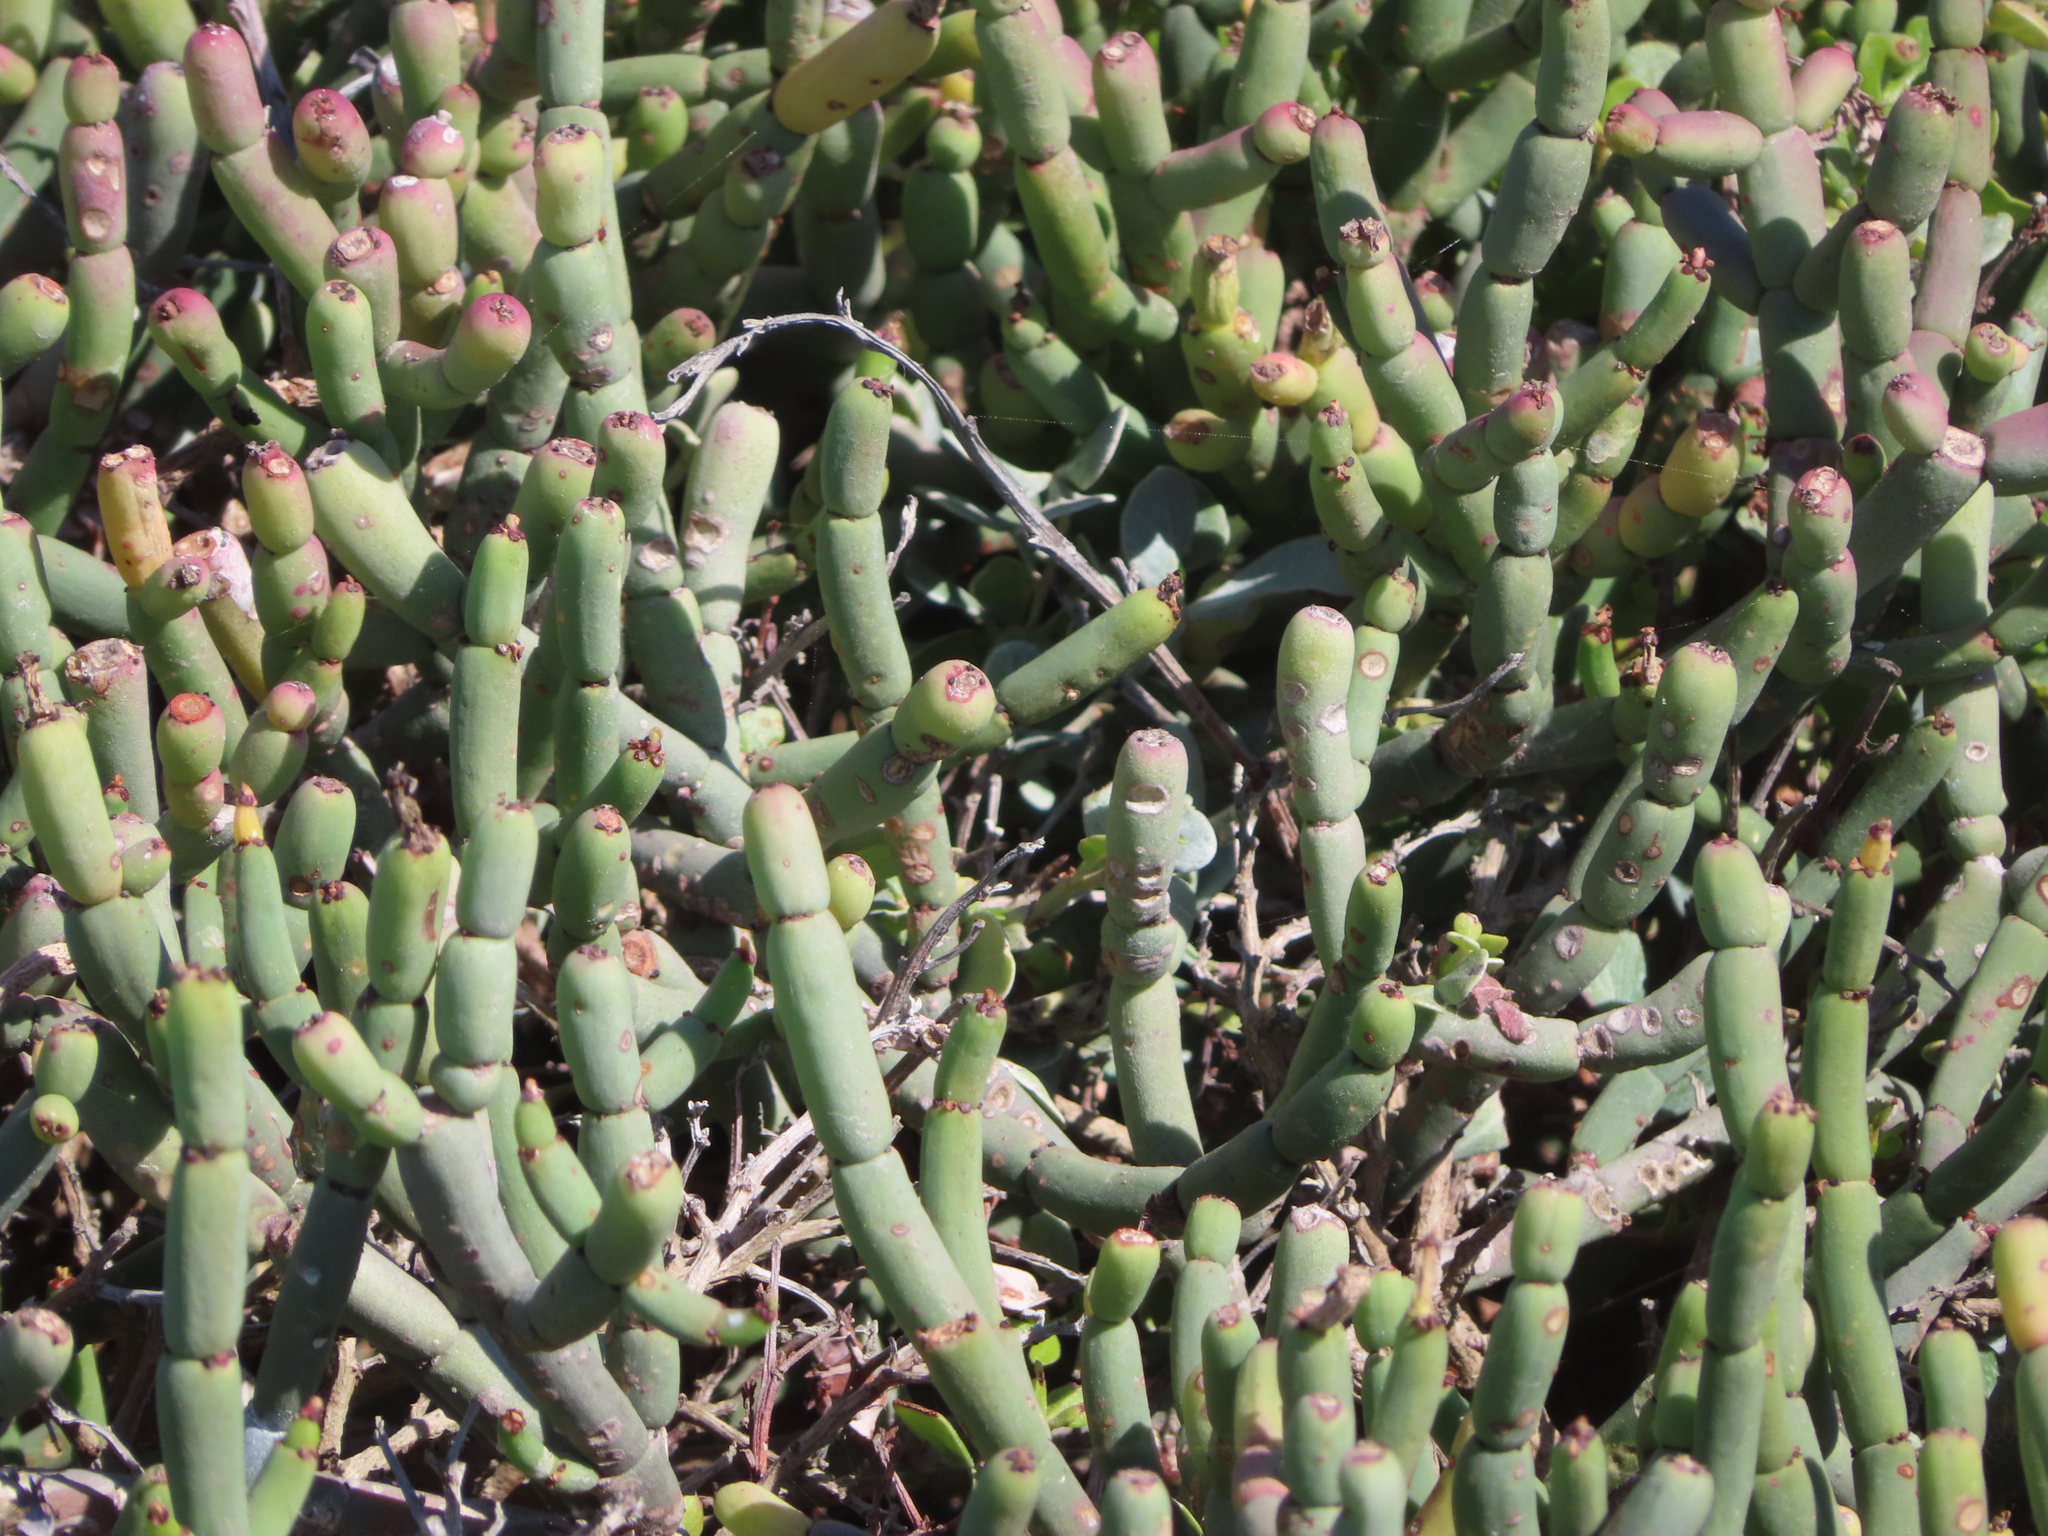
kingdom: Plantae
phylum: Tracheophyta
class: Magnoliopsida
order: Malpighiales
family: Euphorbiaceae
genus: Euphorbia
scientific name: Euphorbia burmanni
